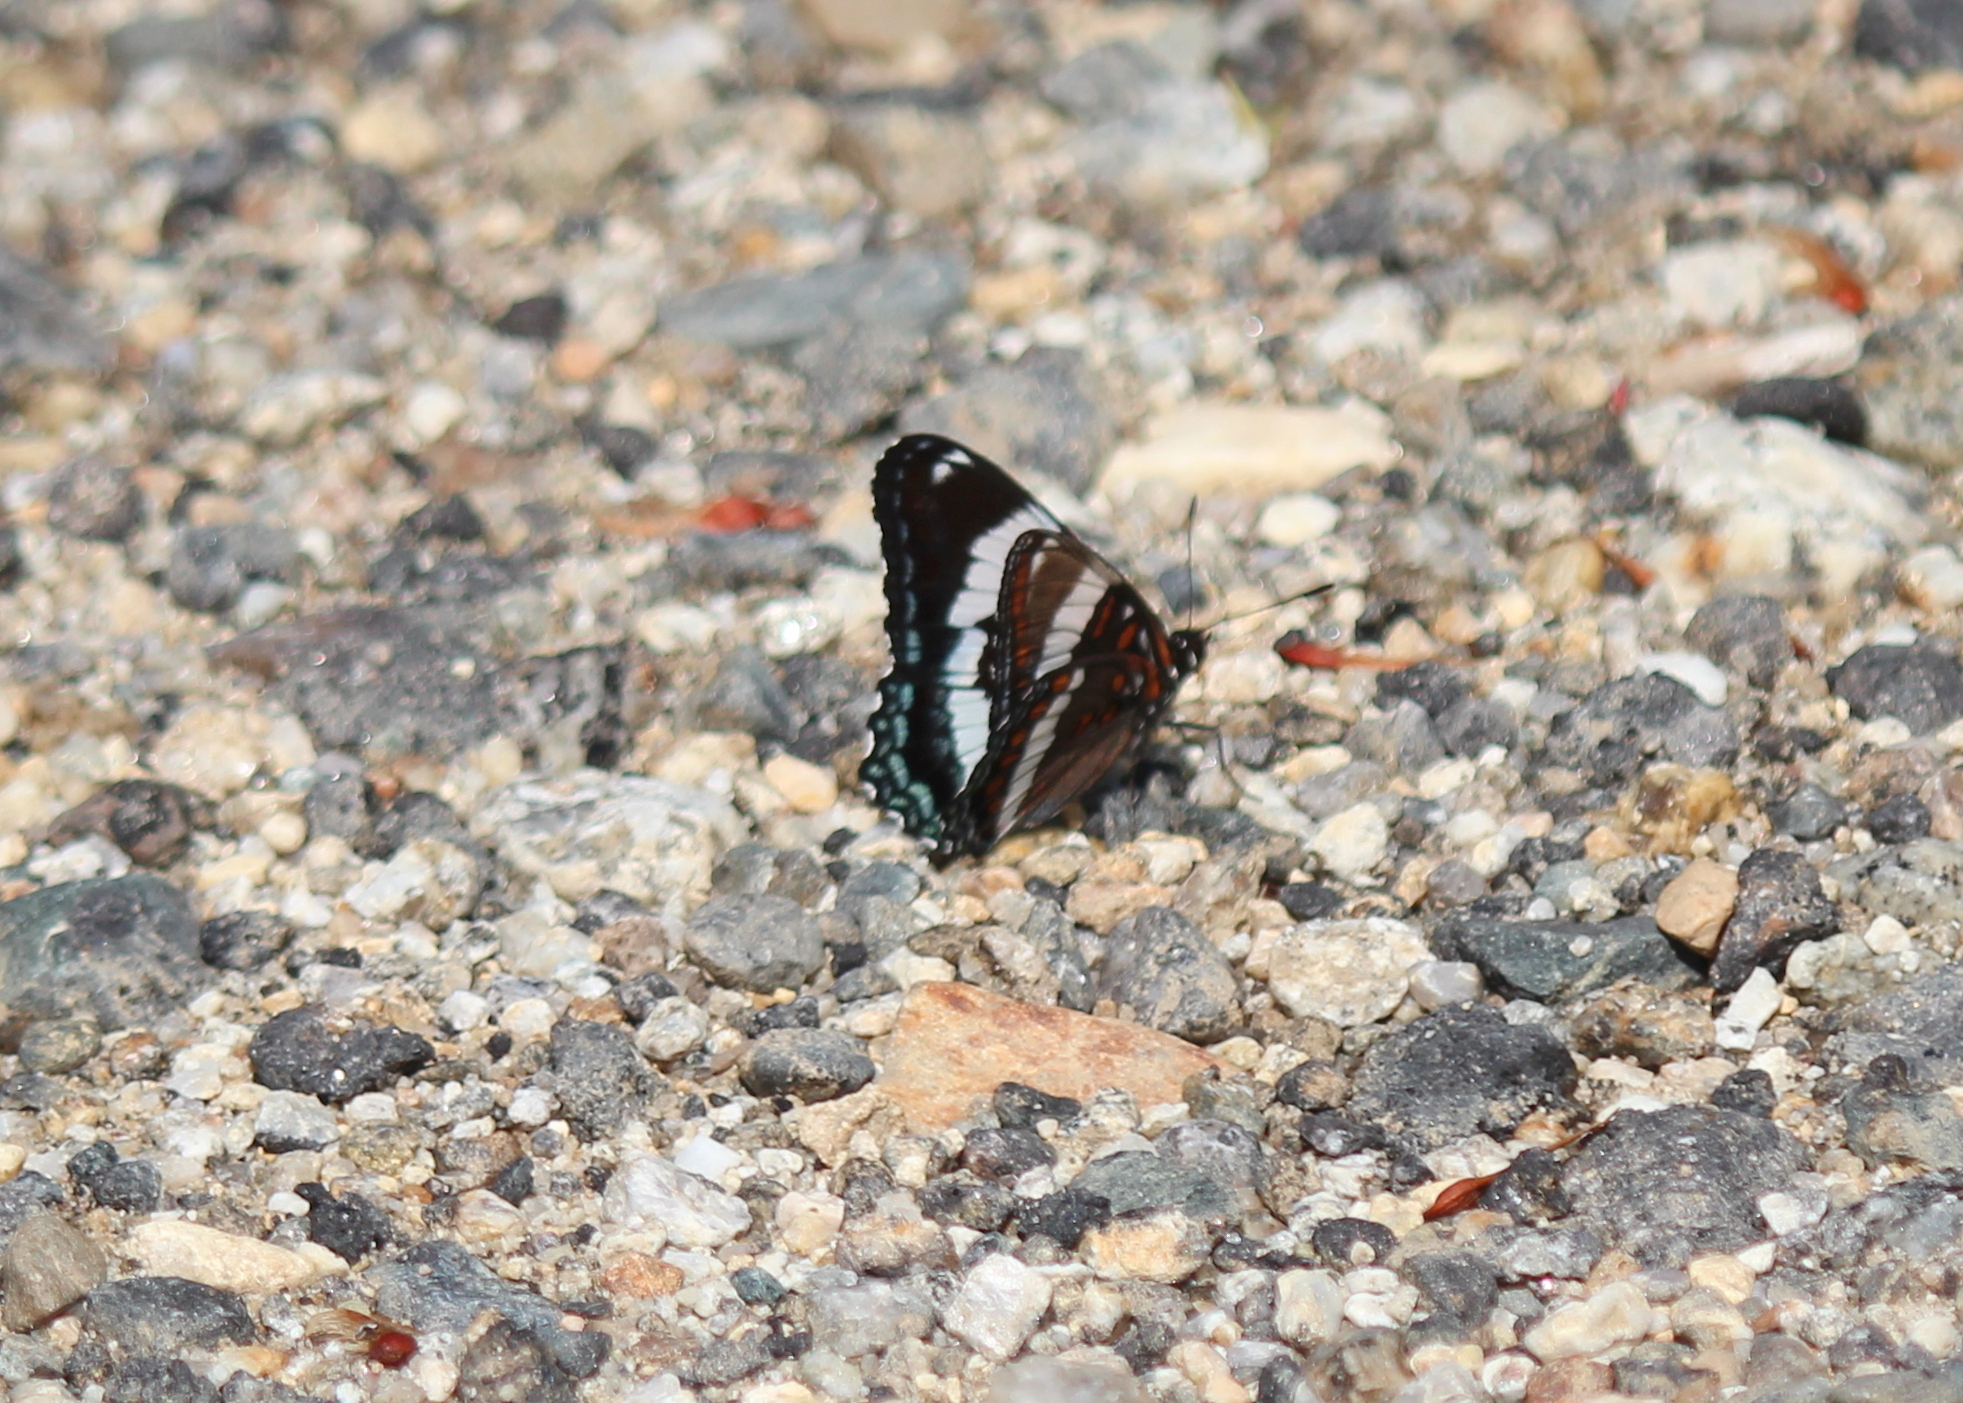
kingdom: Animalia
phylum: Arthropoda
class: Insecta
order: Lepidoptera
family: Nymphalidae
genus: Limenitis
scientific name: Limenitis arthemis
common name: Red-spotted admiral
